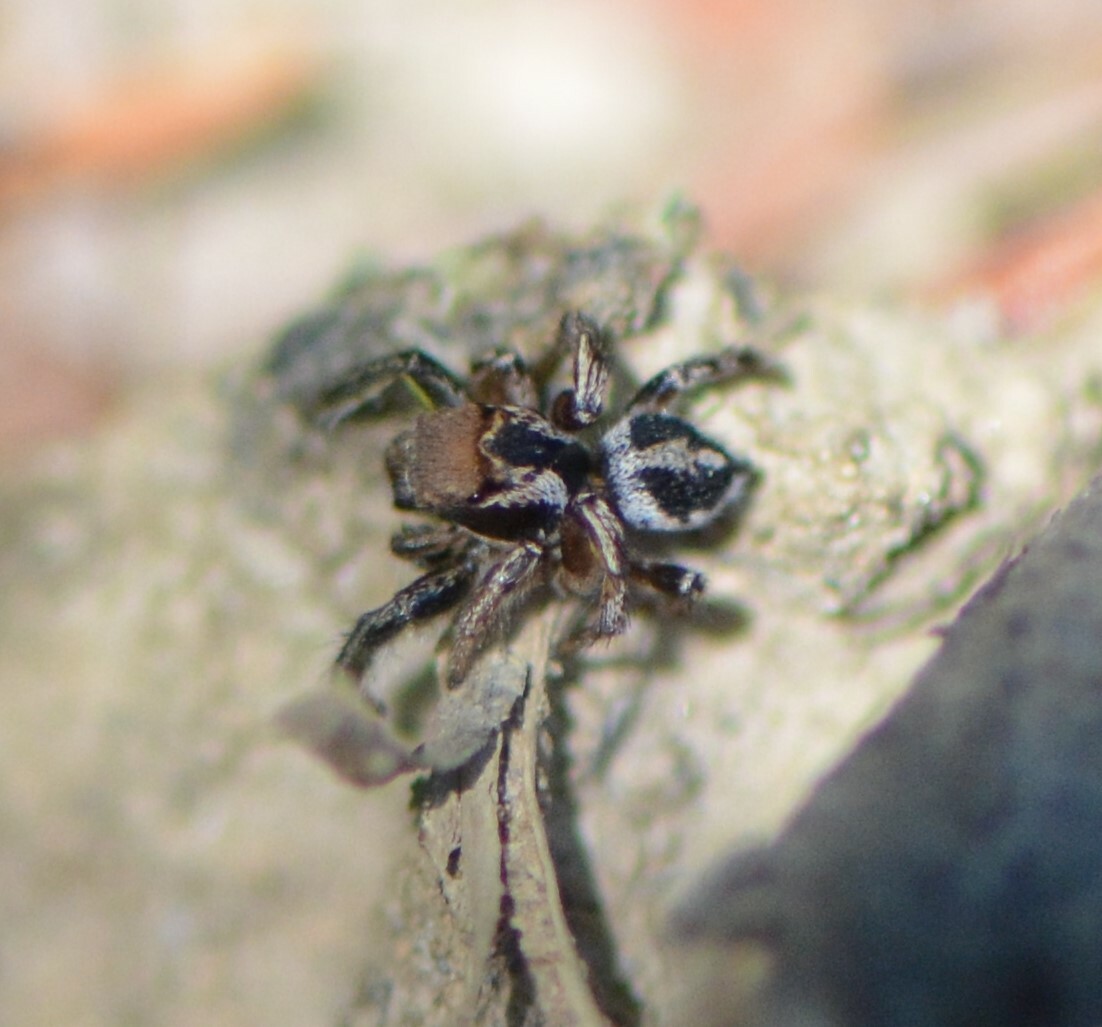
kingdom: Animalia
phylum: Arthropoda
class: Arachnida
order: Araneae
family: Salticidae
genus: Habronattus
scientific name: Habronattus viridipes
